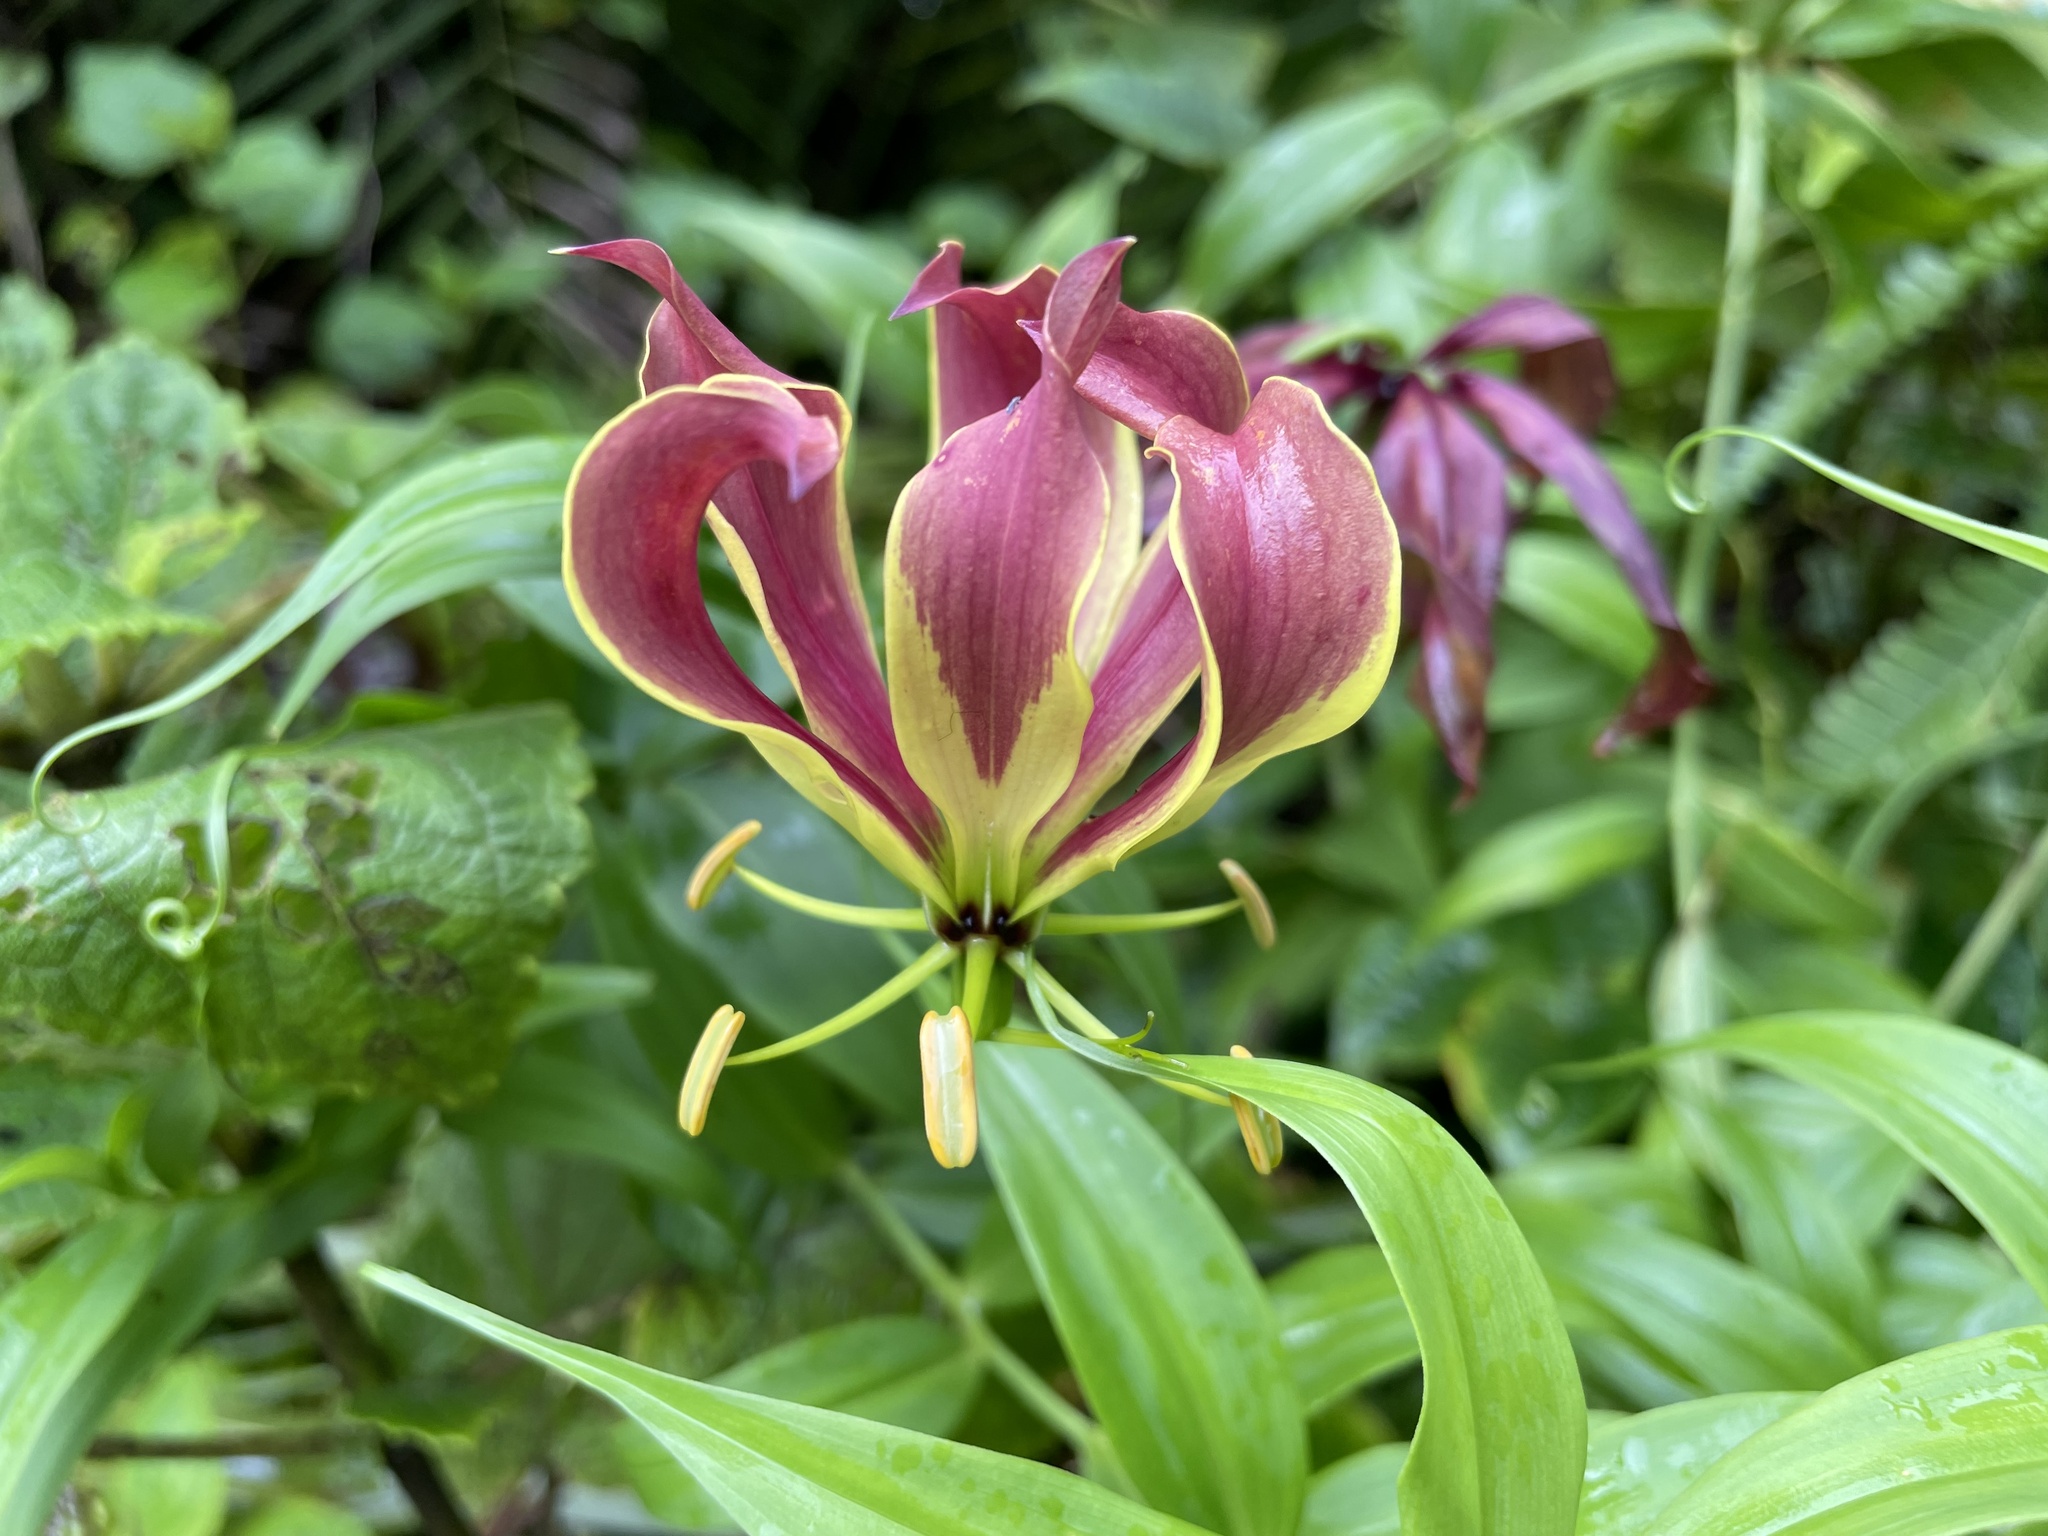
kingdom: Plantae
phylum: Tracheophyta
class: Liliopsida
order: Liliales
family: Colchicaceae
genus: Gloriosa
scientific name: Gloriosa superba
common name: Flame lily
